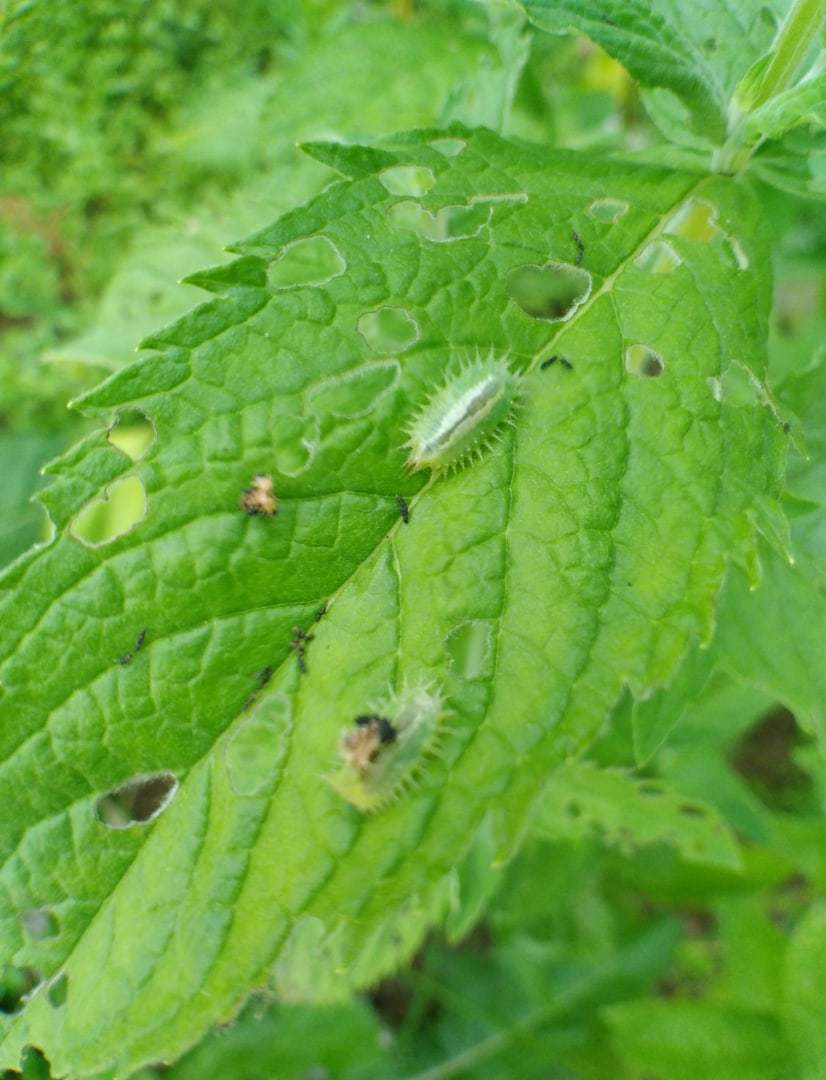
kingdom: Animalia
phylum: Arthropoda
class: Insecta
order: Coleoptera
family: Chrysomelidae
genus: Cassida
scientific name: Cassida viridis
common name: Green tortoise beetle
